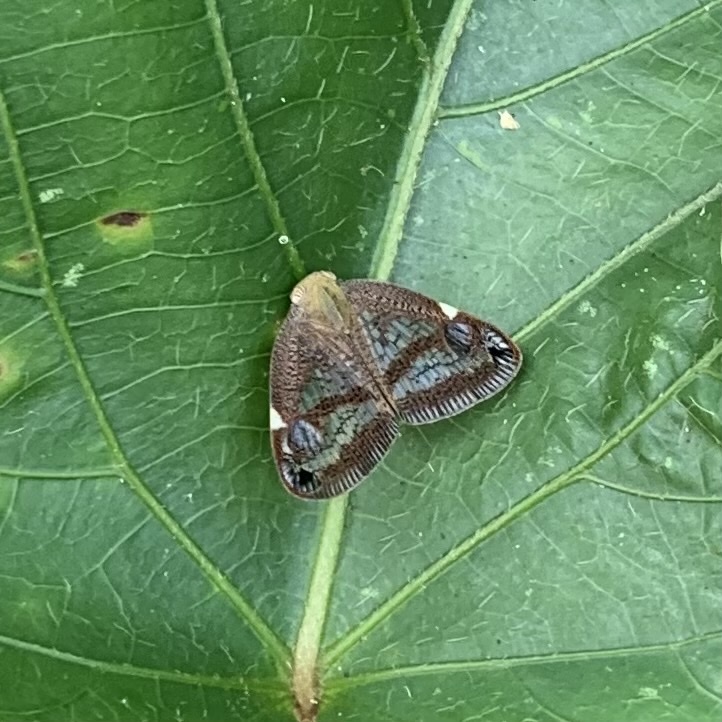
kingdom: Animalia
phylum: Arthropoda
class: Insecta
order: Hemiptera
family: Ricaniidae
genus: Parapiromis
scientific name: Parapiromis translucida
